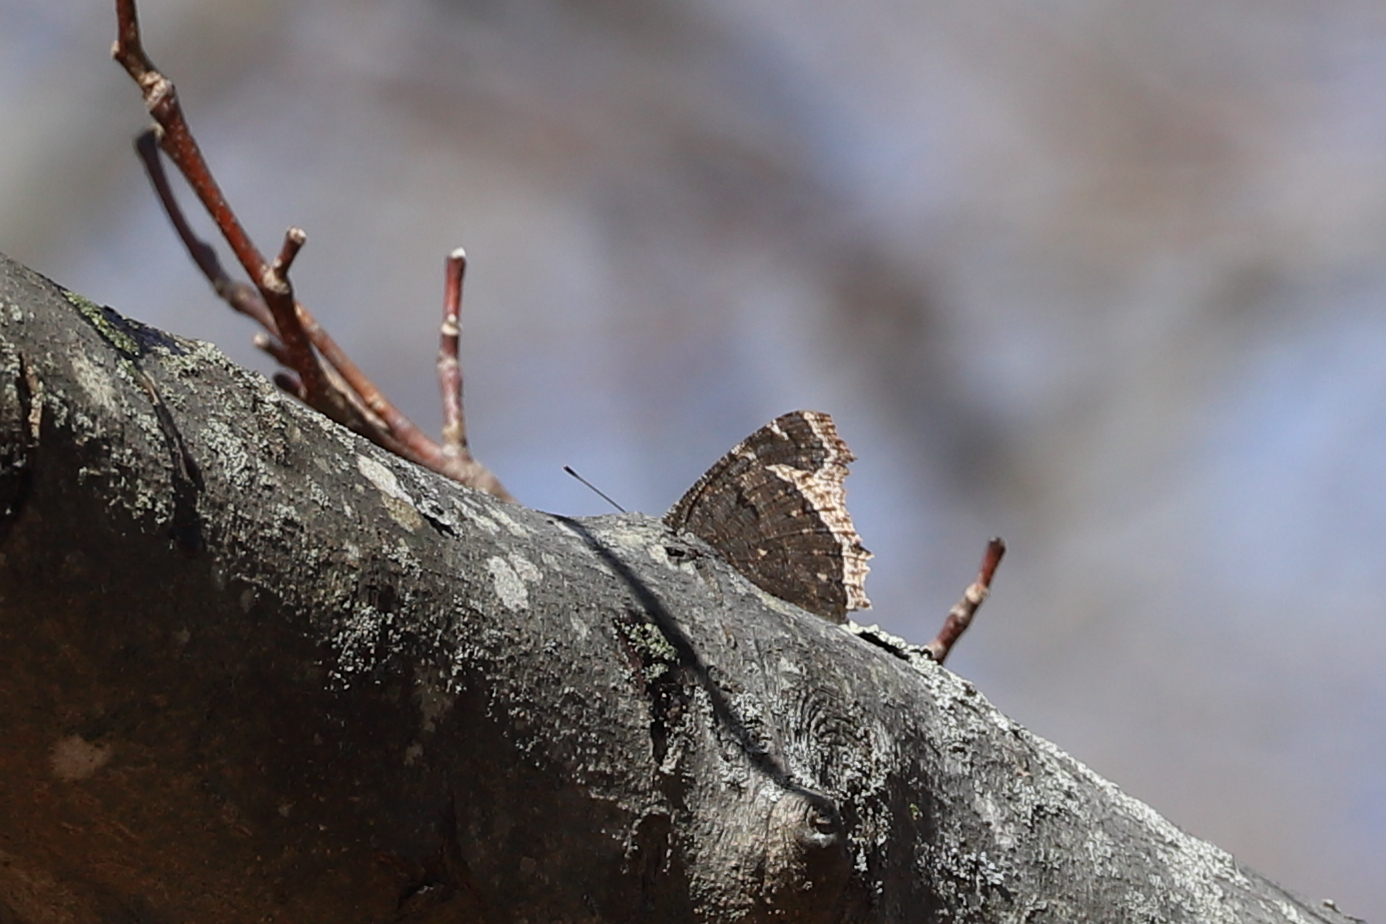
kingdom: Animalia
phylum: Arthropoda
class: Insecta
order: Lepidoptera
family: Nymphalidae
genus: Nymphalis
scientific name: Nymphalis antiopa
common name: Camberwell beauty
